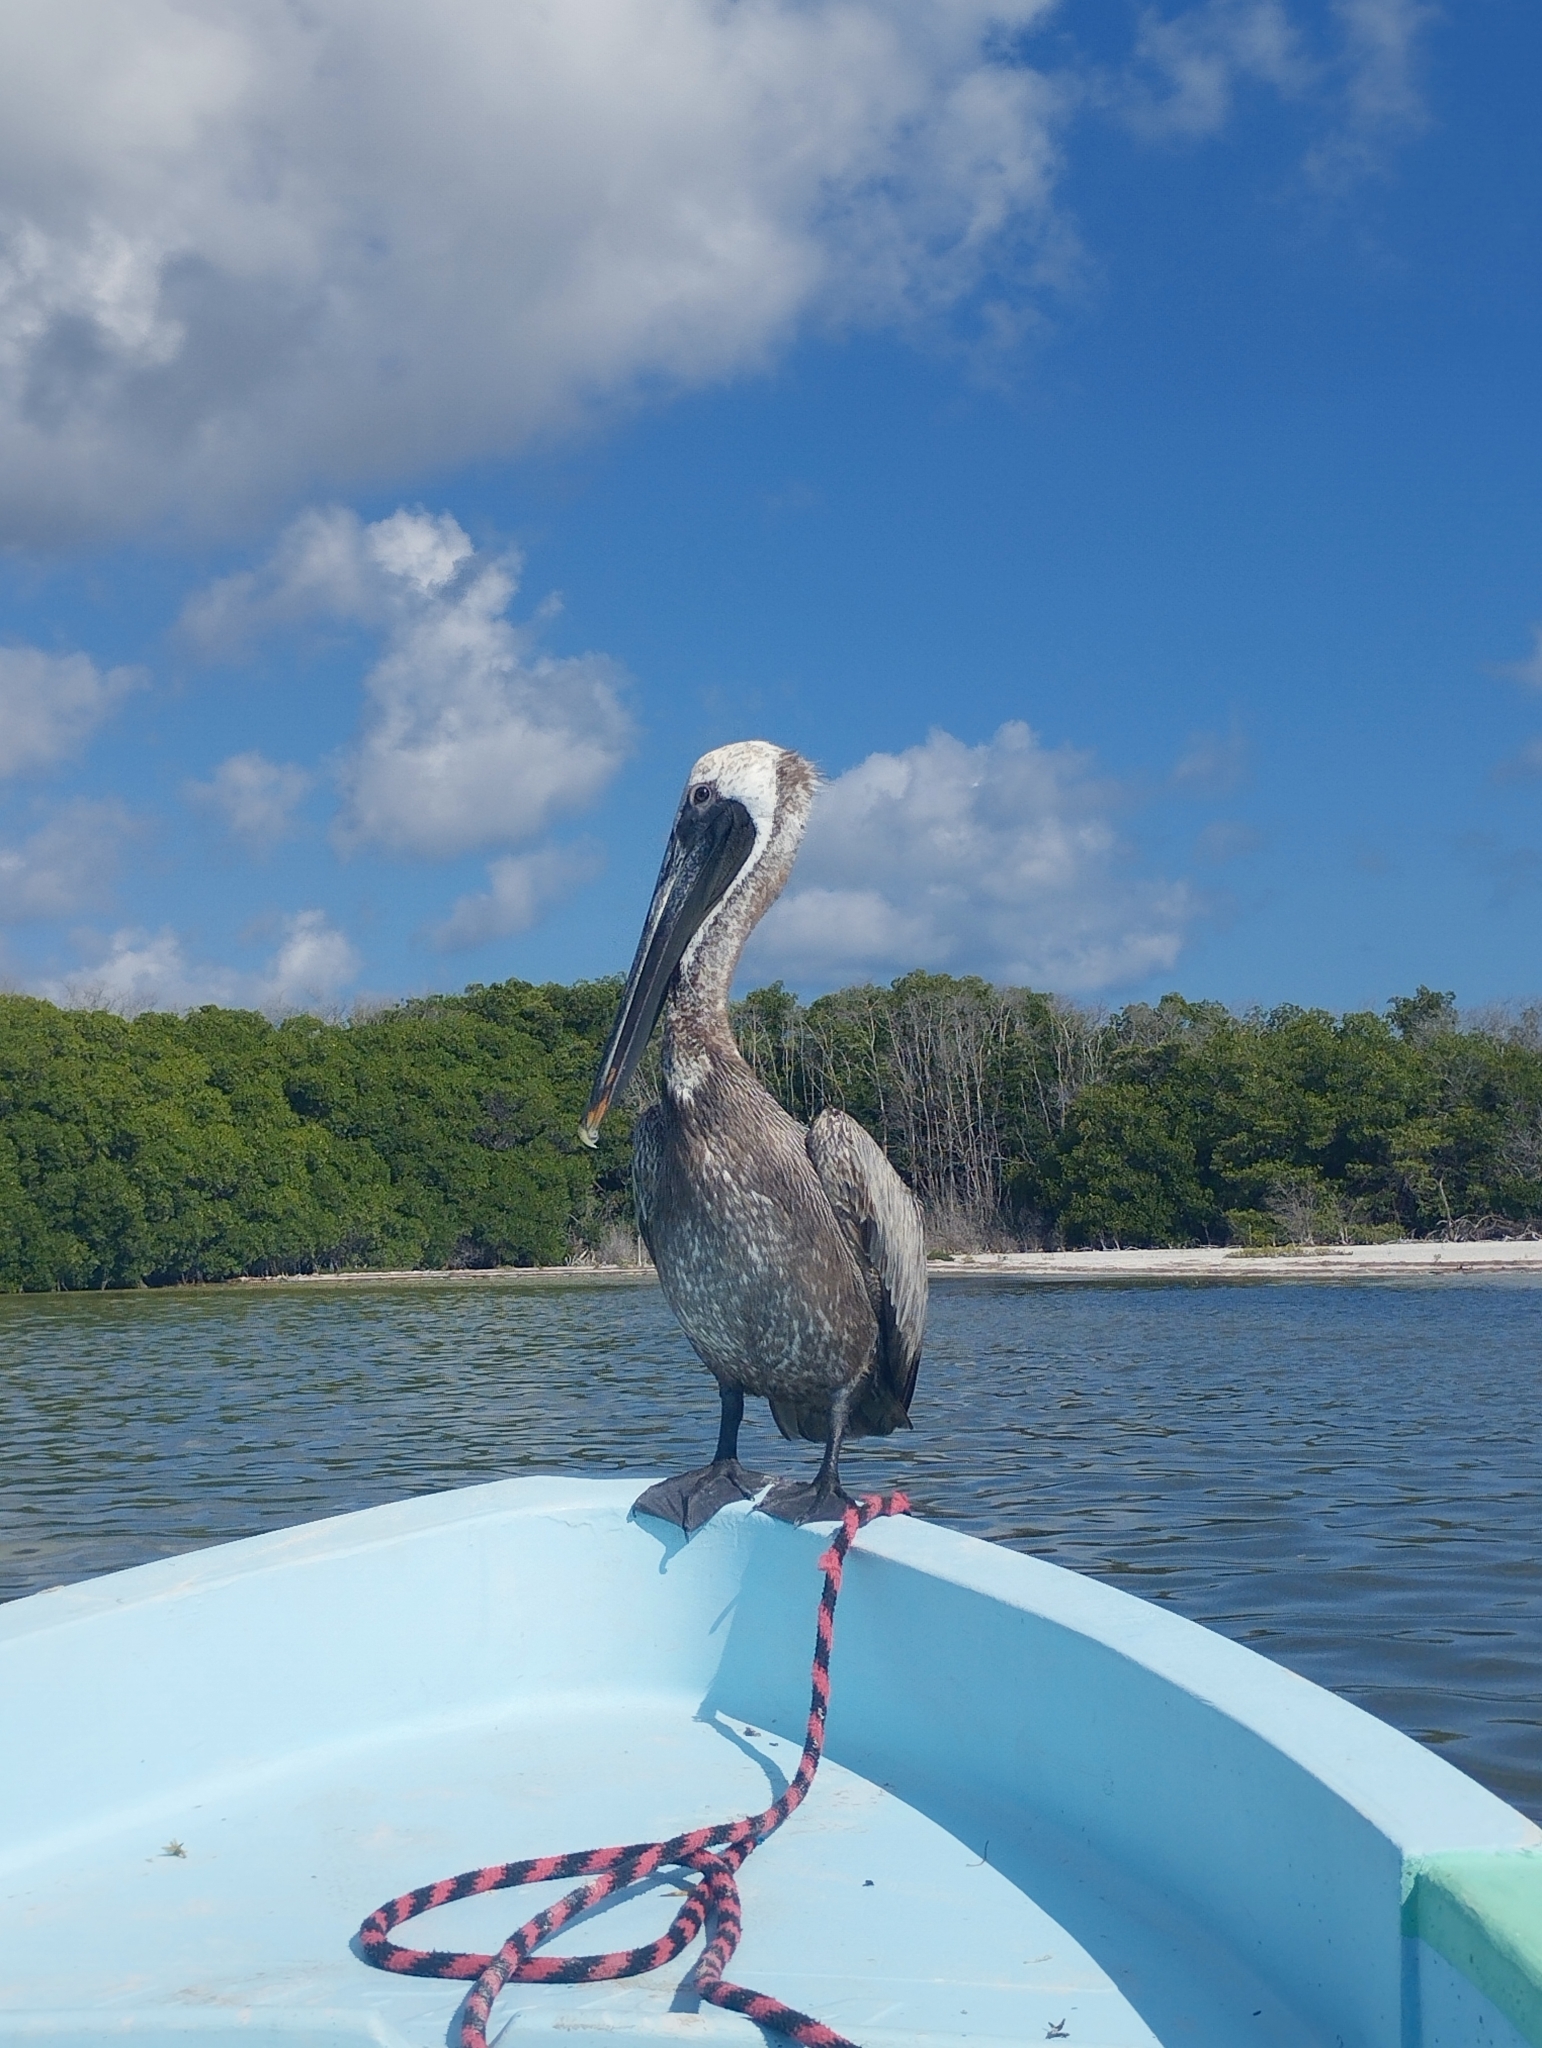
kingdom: Animalia
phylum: Chordata
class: Aves
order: Pelecaniformes
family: Pelecanidae
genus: Pelecanus
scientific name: Pelecanus occidentalis
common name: Brown pelican
